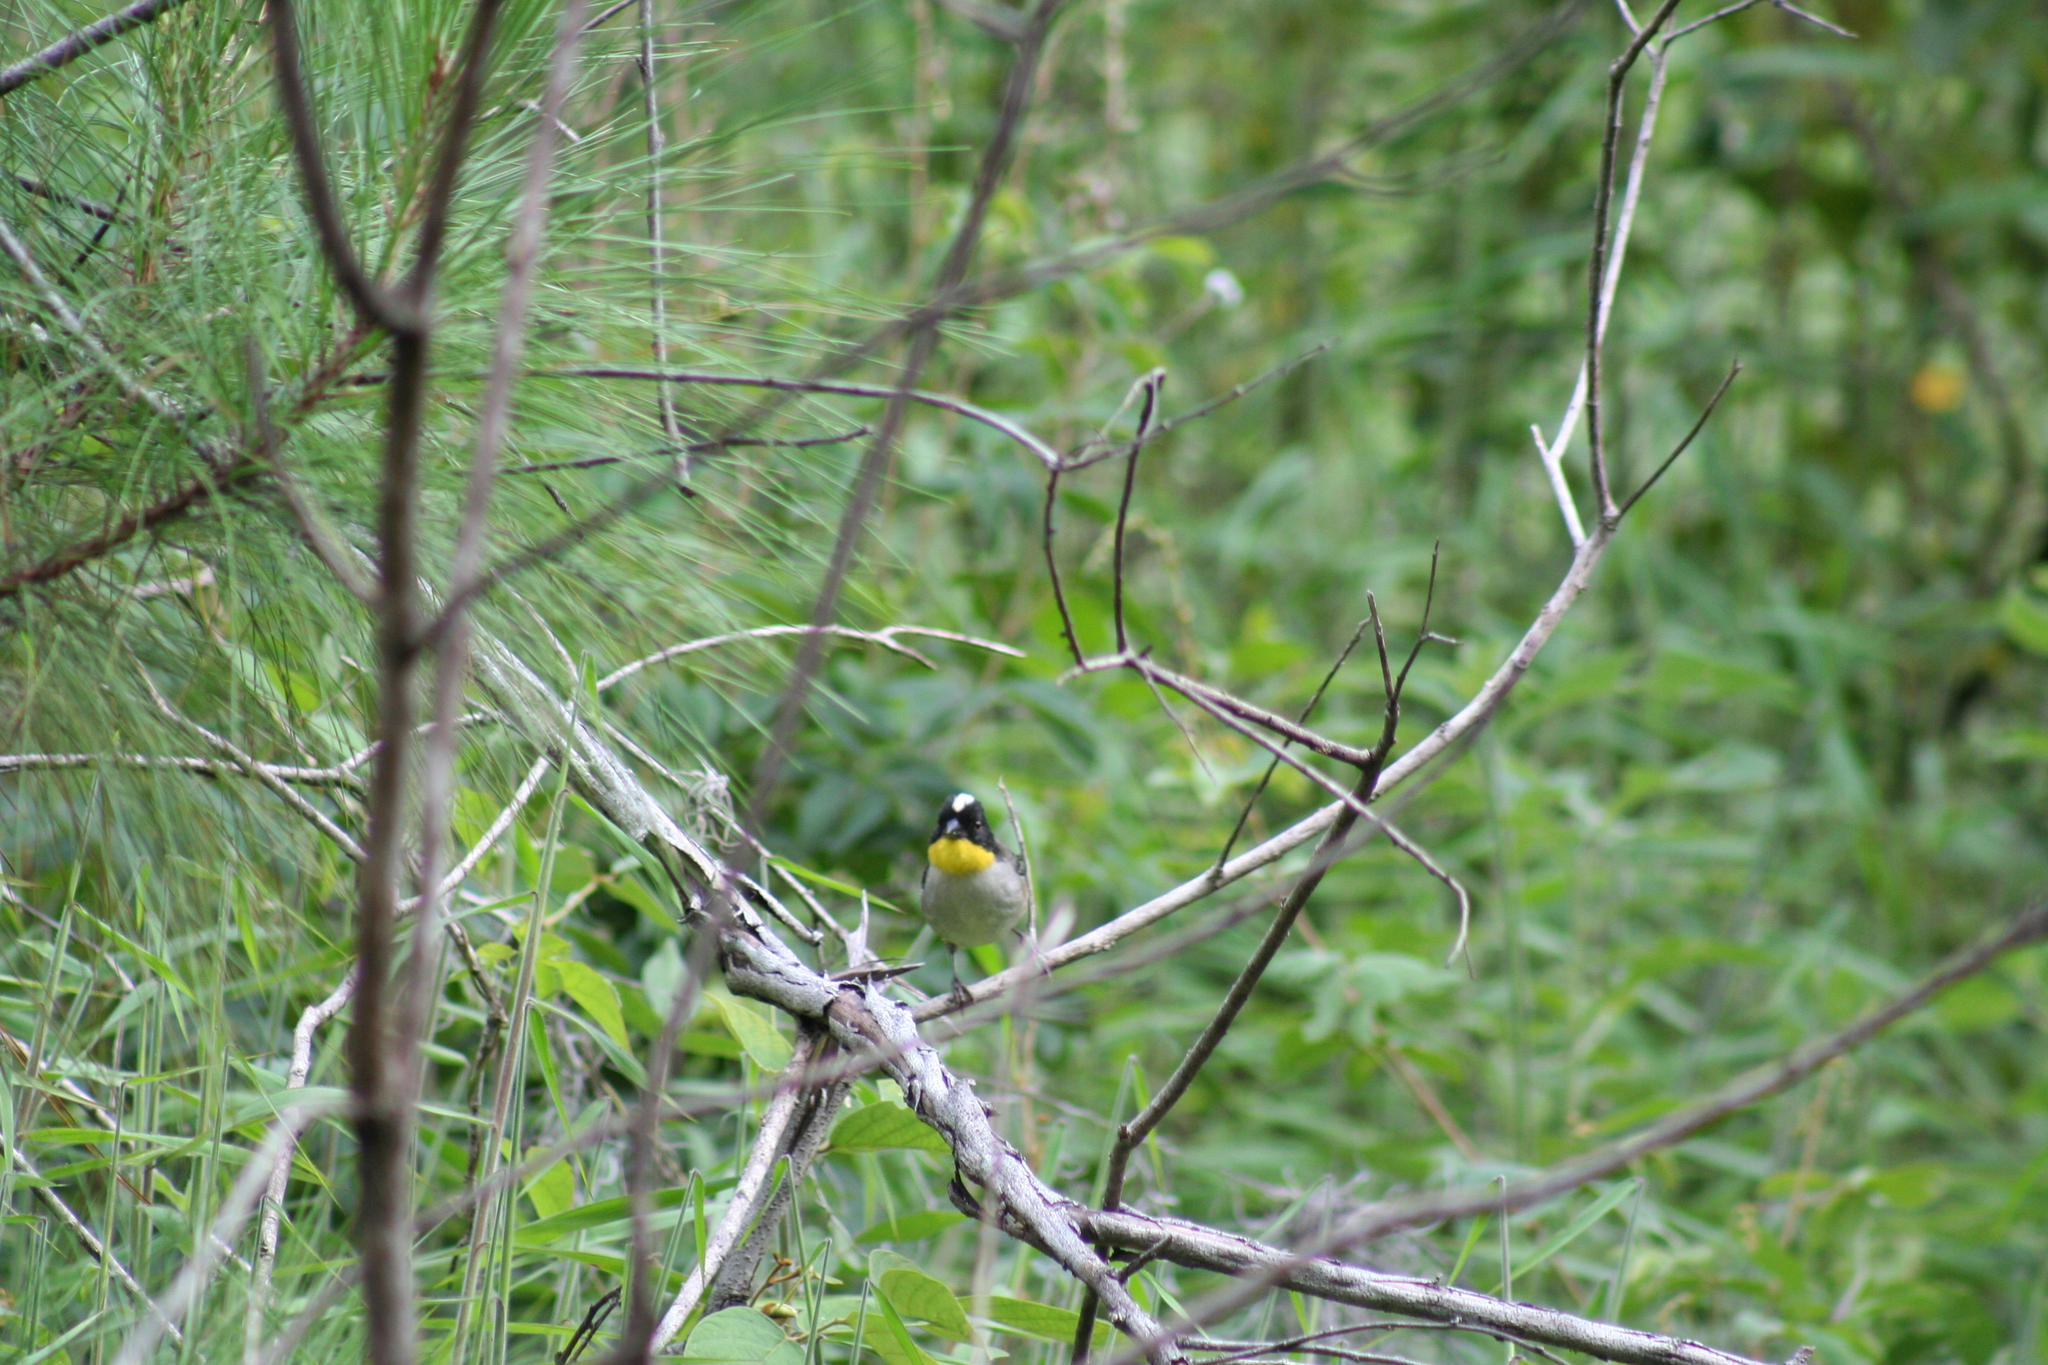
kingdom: Animalia
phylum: Chordata
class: Aves
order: Passeriformes
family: Passerellidae
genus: Atlapetes
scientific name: Atlapetes albinucha
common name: White-naped brush-finch
